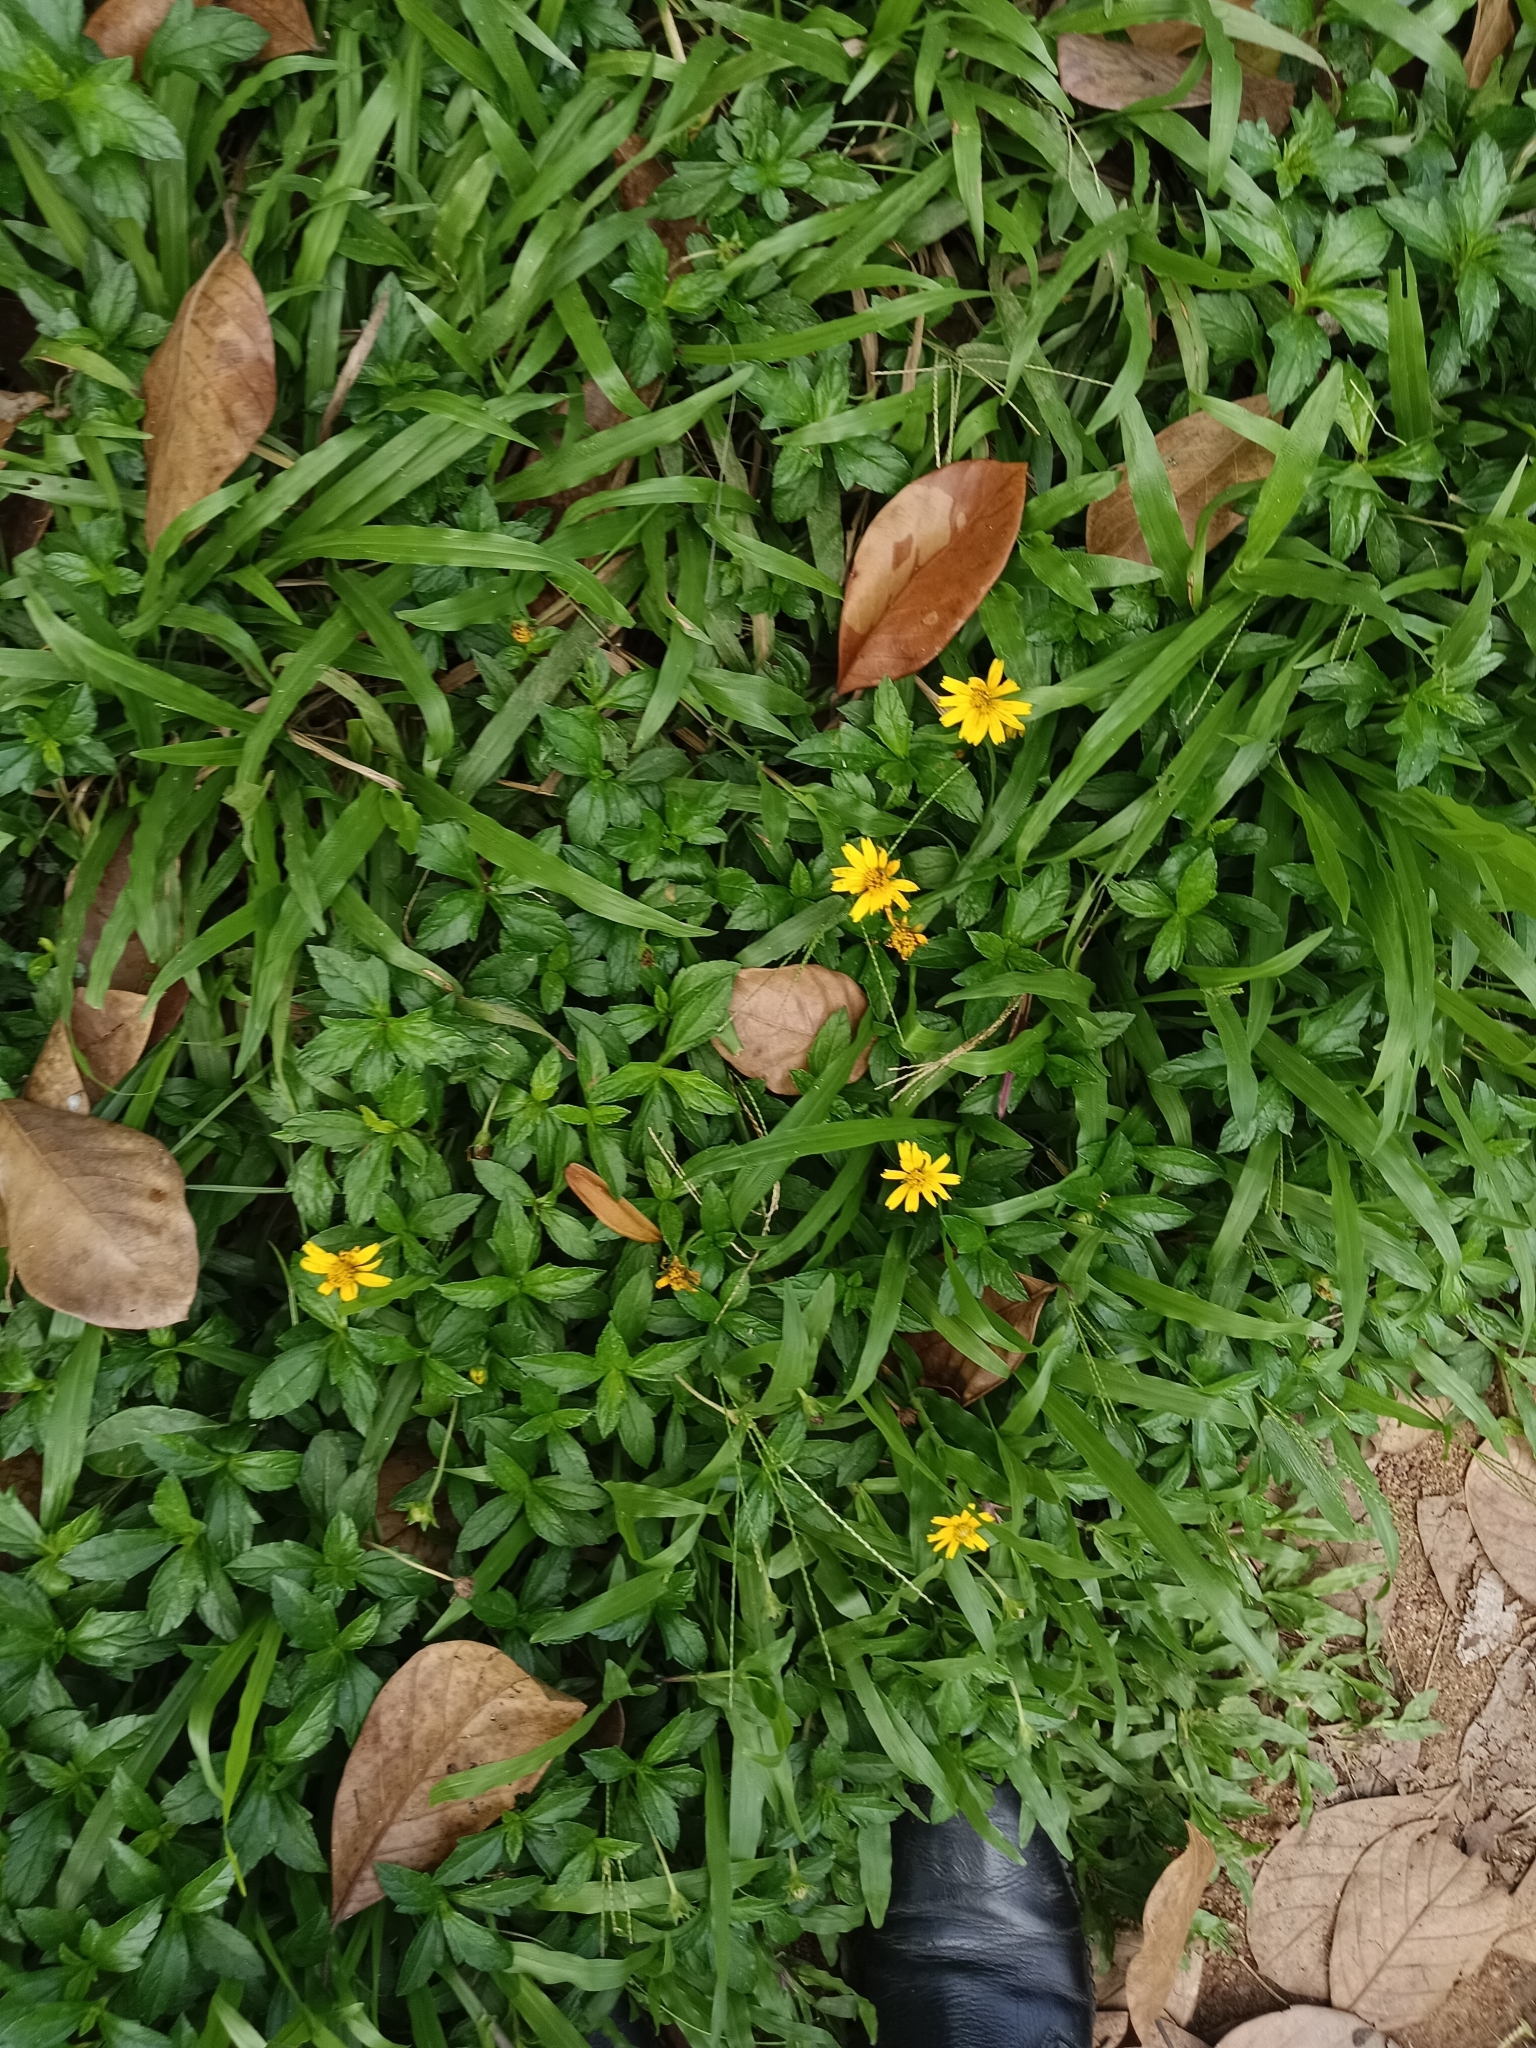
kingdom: Plantae
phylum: Tracheophyta
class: Magnoliopsida
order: Asterales
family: Asteraceae
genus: Sphagneticola
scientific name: Sphagneticola trilobata
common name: Bay biscayne creeping-oxeye
